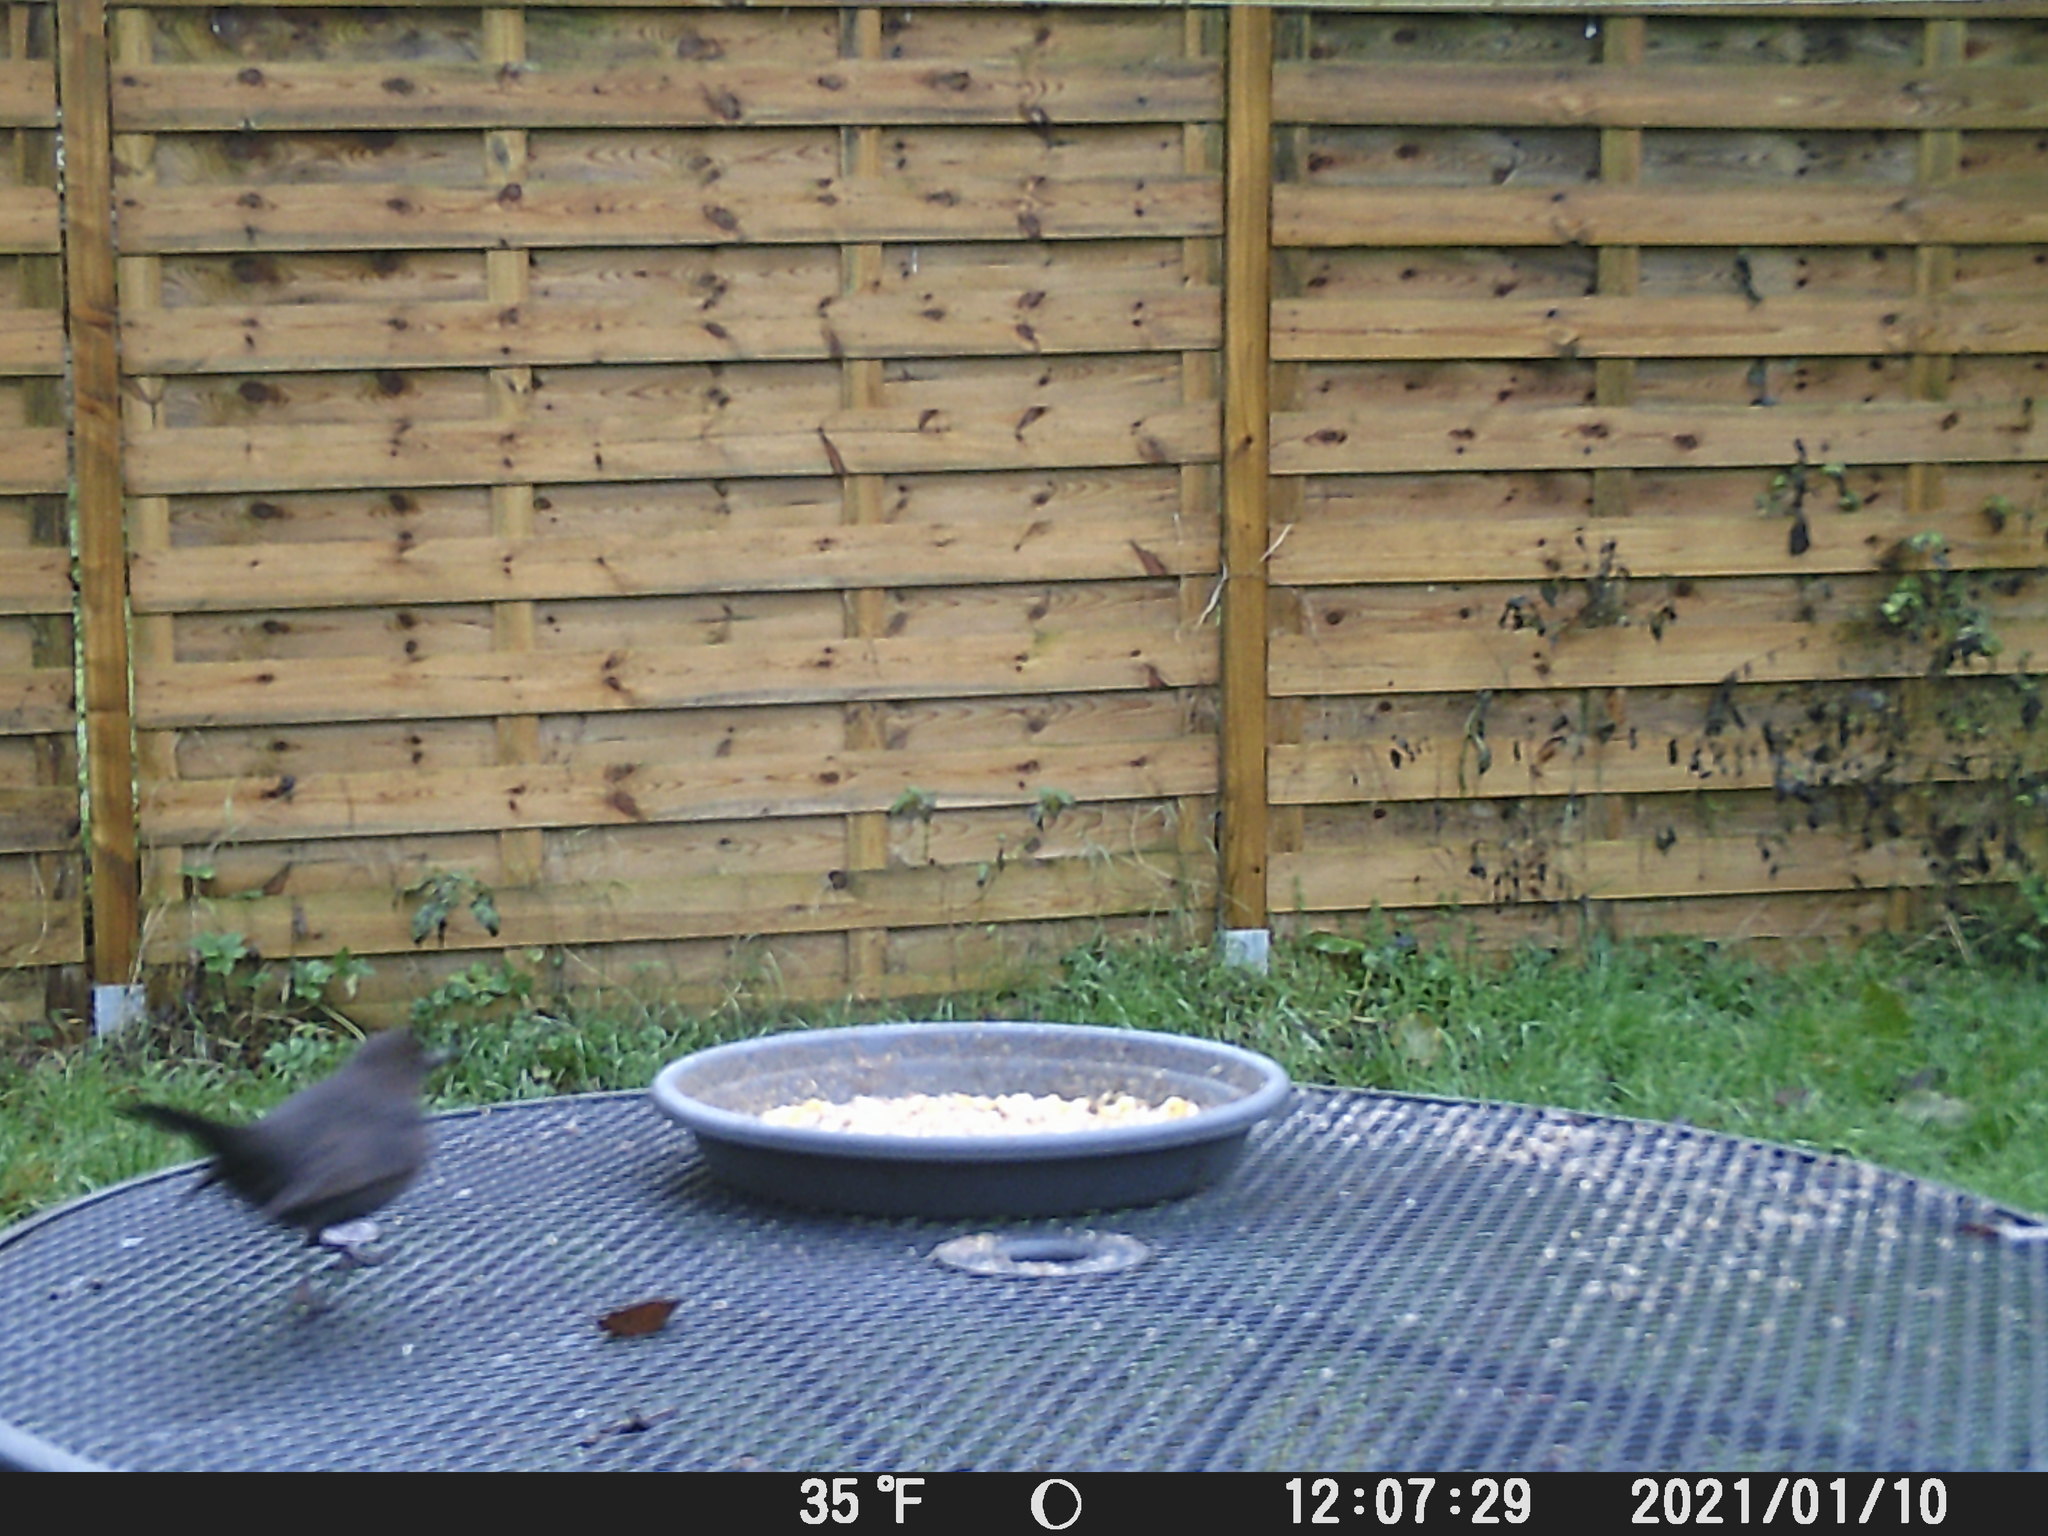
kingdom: Animalia
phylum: Chordata
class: Aves
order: Passeriformes
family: Turdidae
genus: Turdus
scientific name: Turdus merula
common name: Common blackbird
